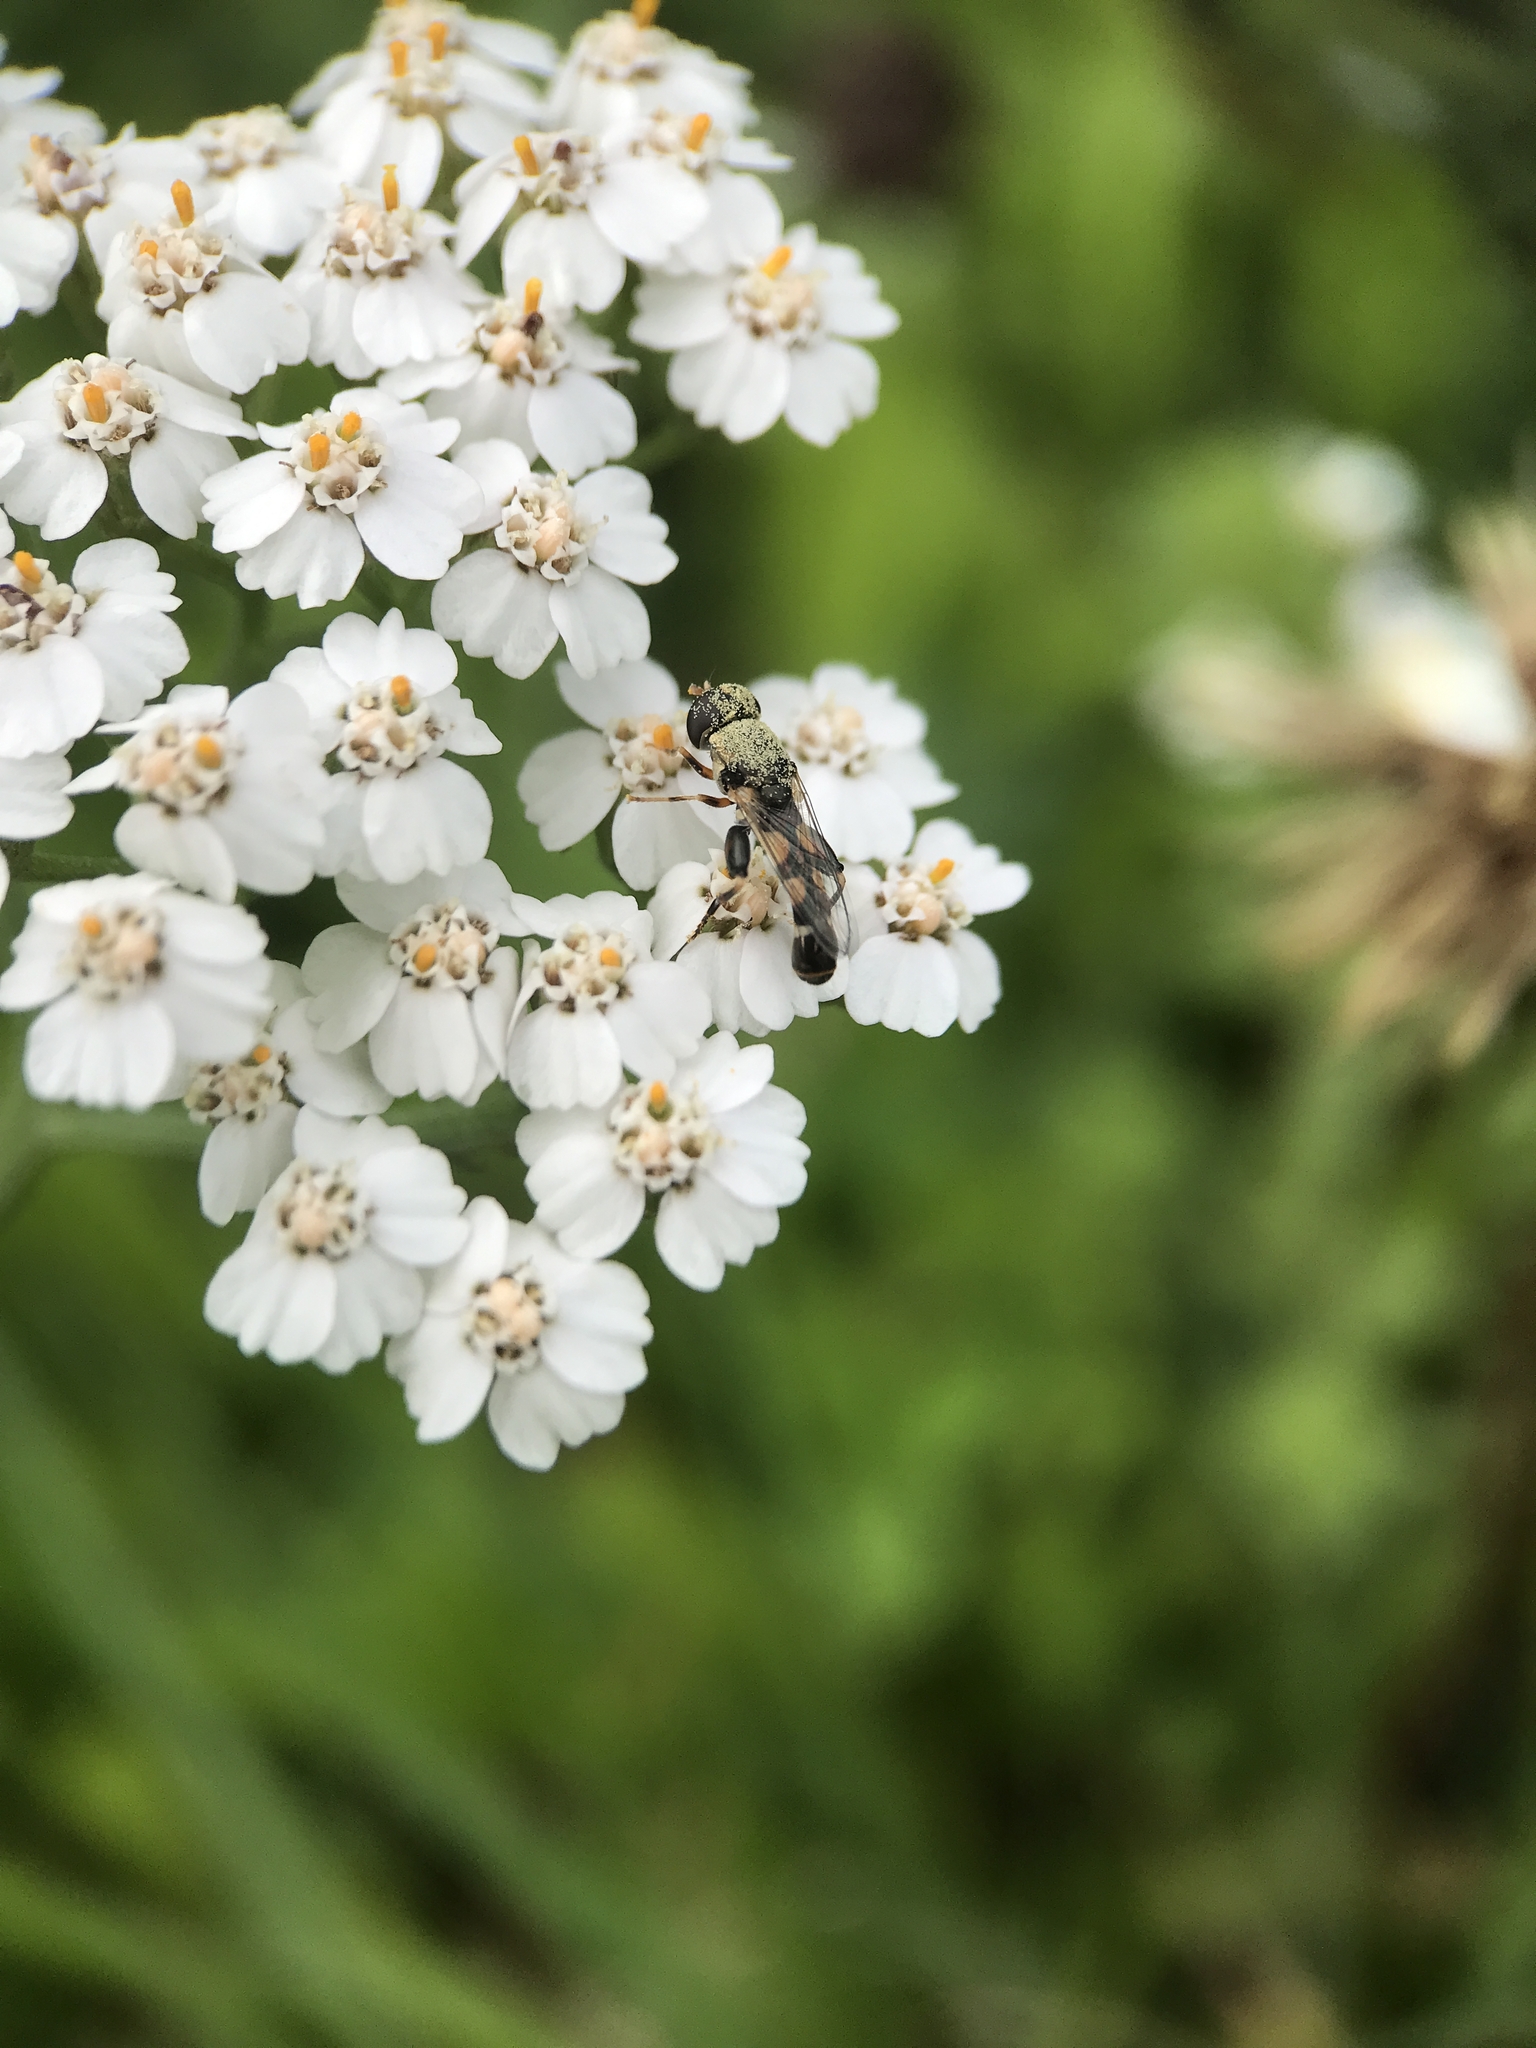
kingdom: Animalia
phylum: Arthropoda
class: Insecta
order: Diptera
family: Syrphidae
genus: Syritta
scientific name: Syritta pipiens
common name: Hover fly
